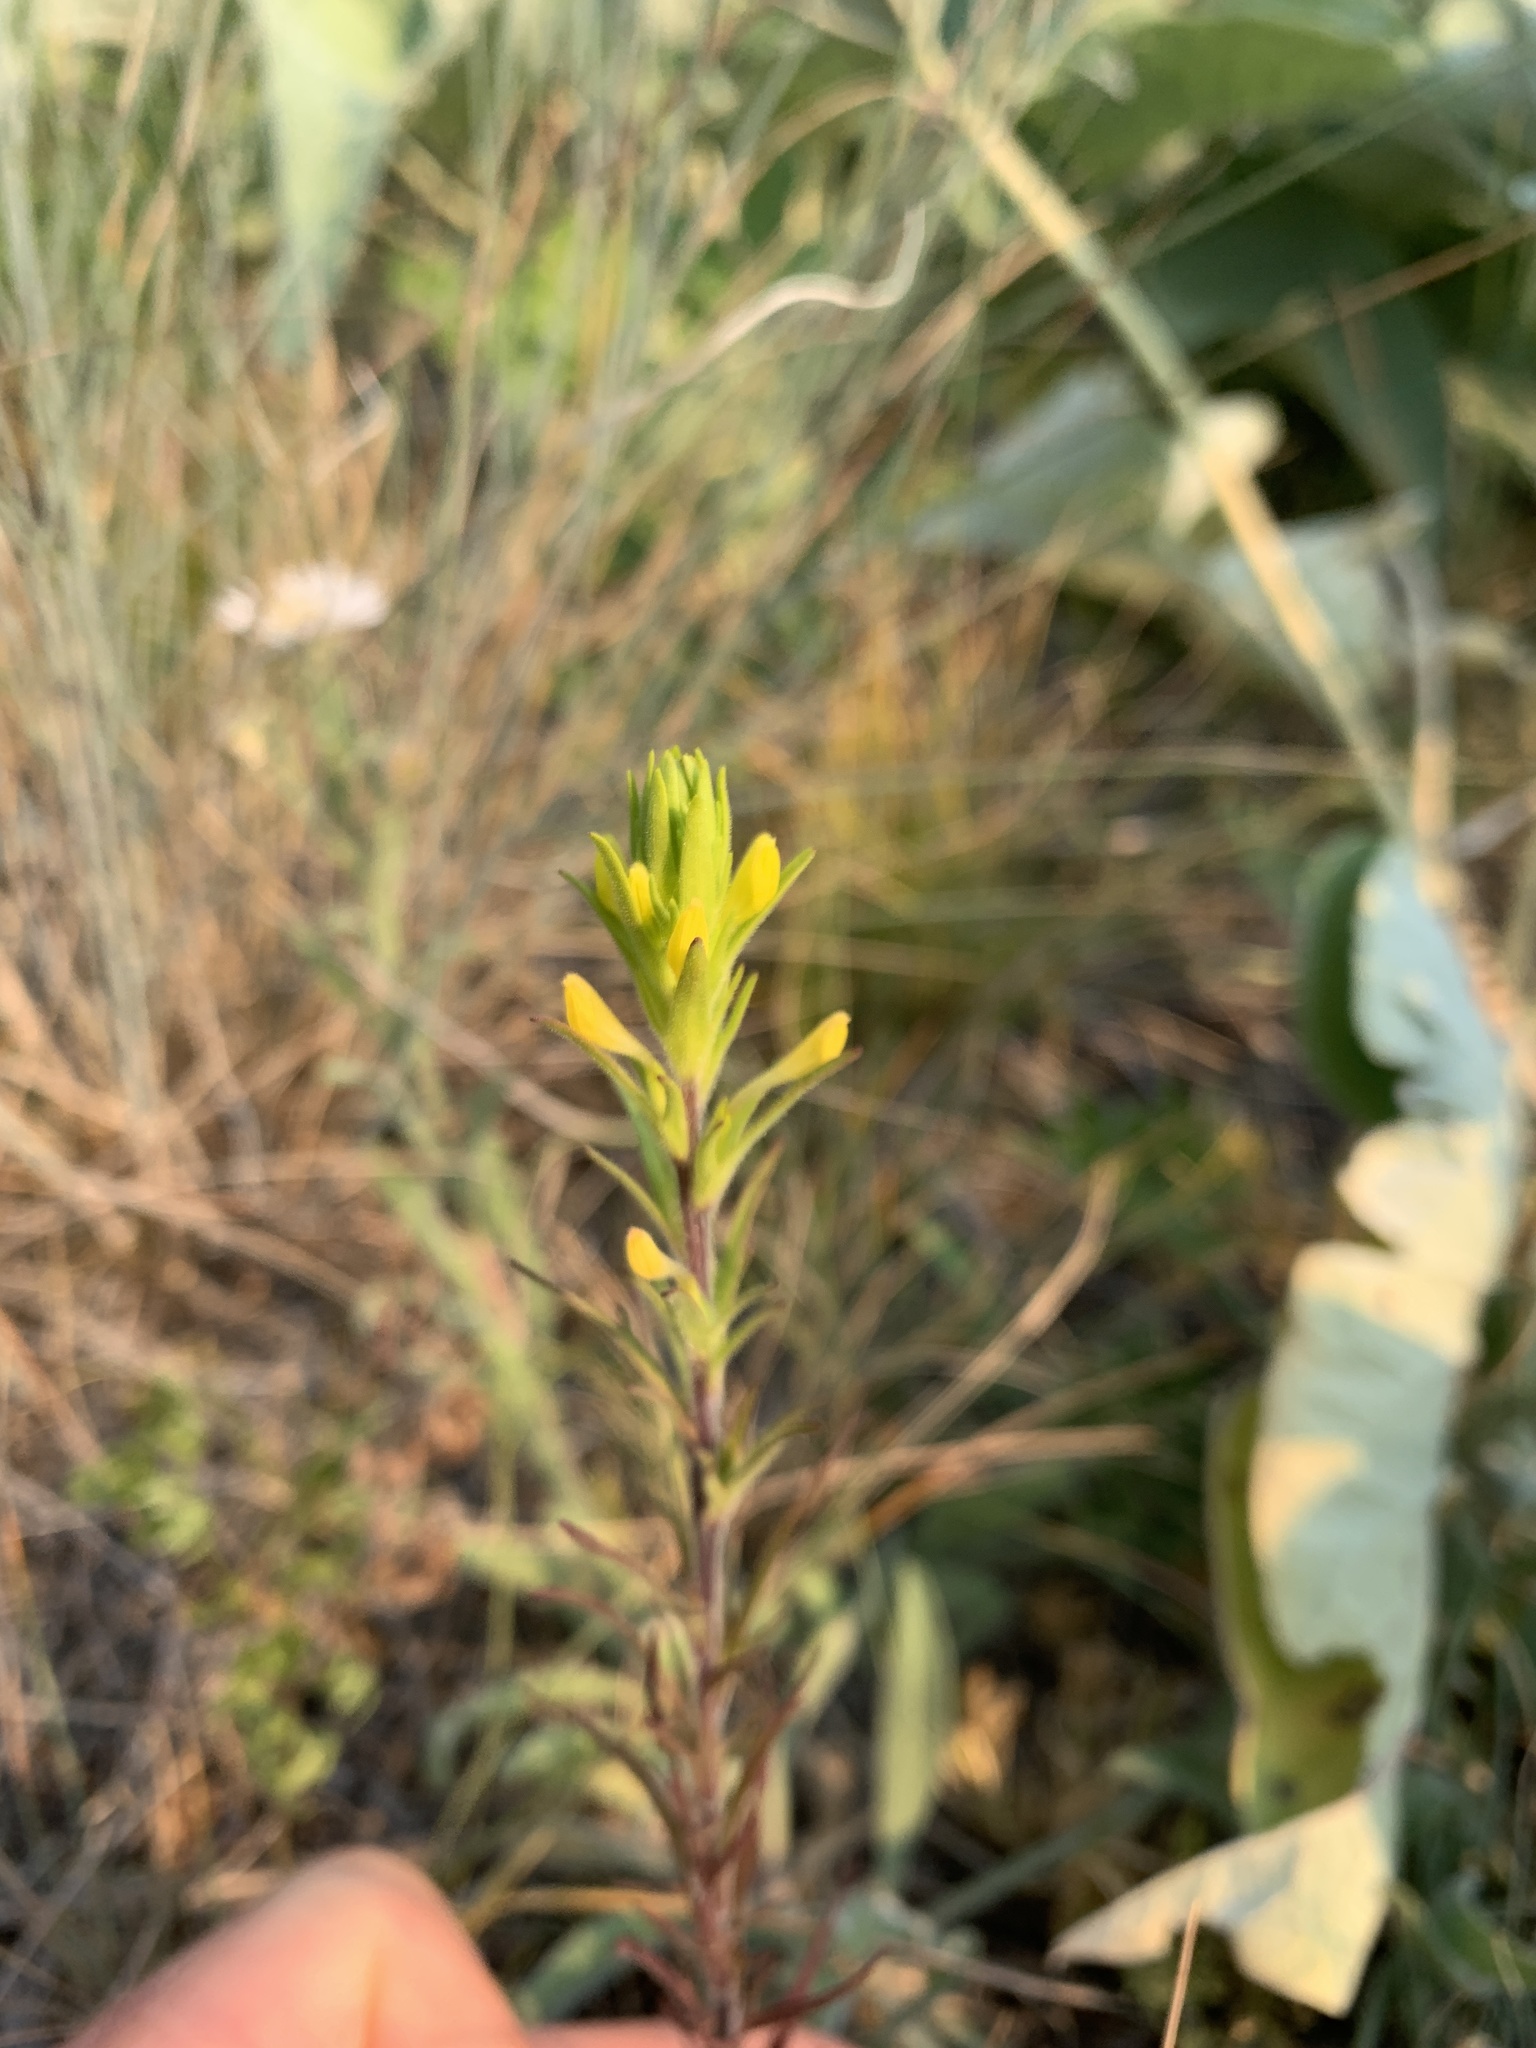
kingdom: Plantae
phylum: Tracheophyta
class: Magnoliopsida
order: Lamiales
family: Orobanchaceae
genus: Orthocarpus
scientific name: Orthocarpus luteus
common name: Golden-tongue owl's-clover
